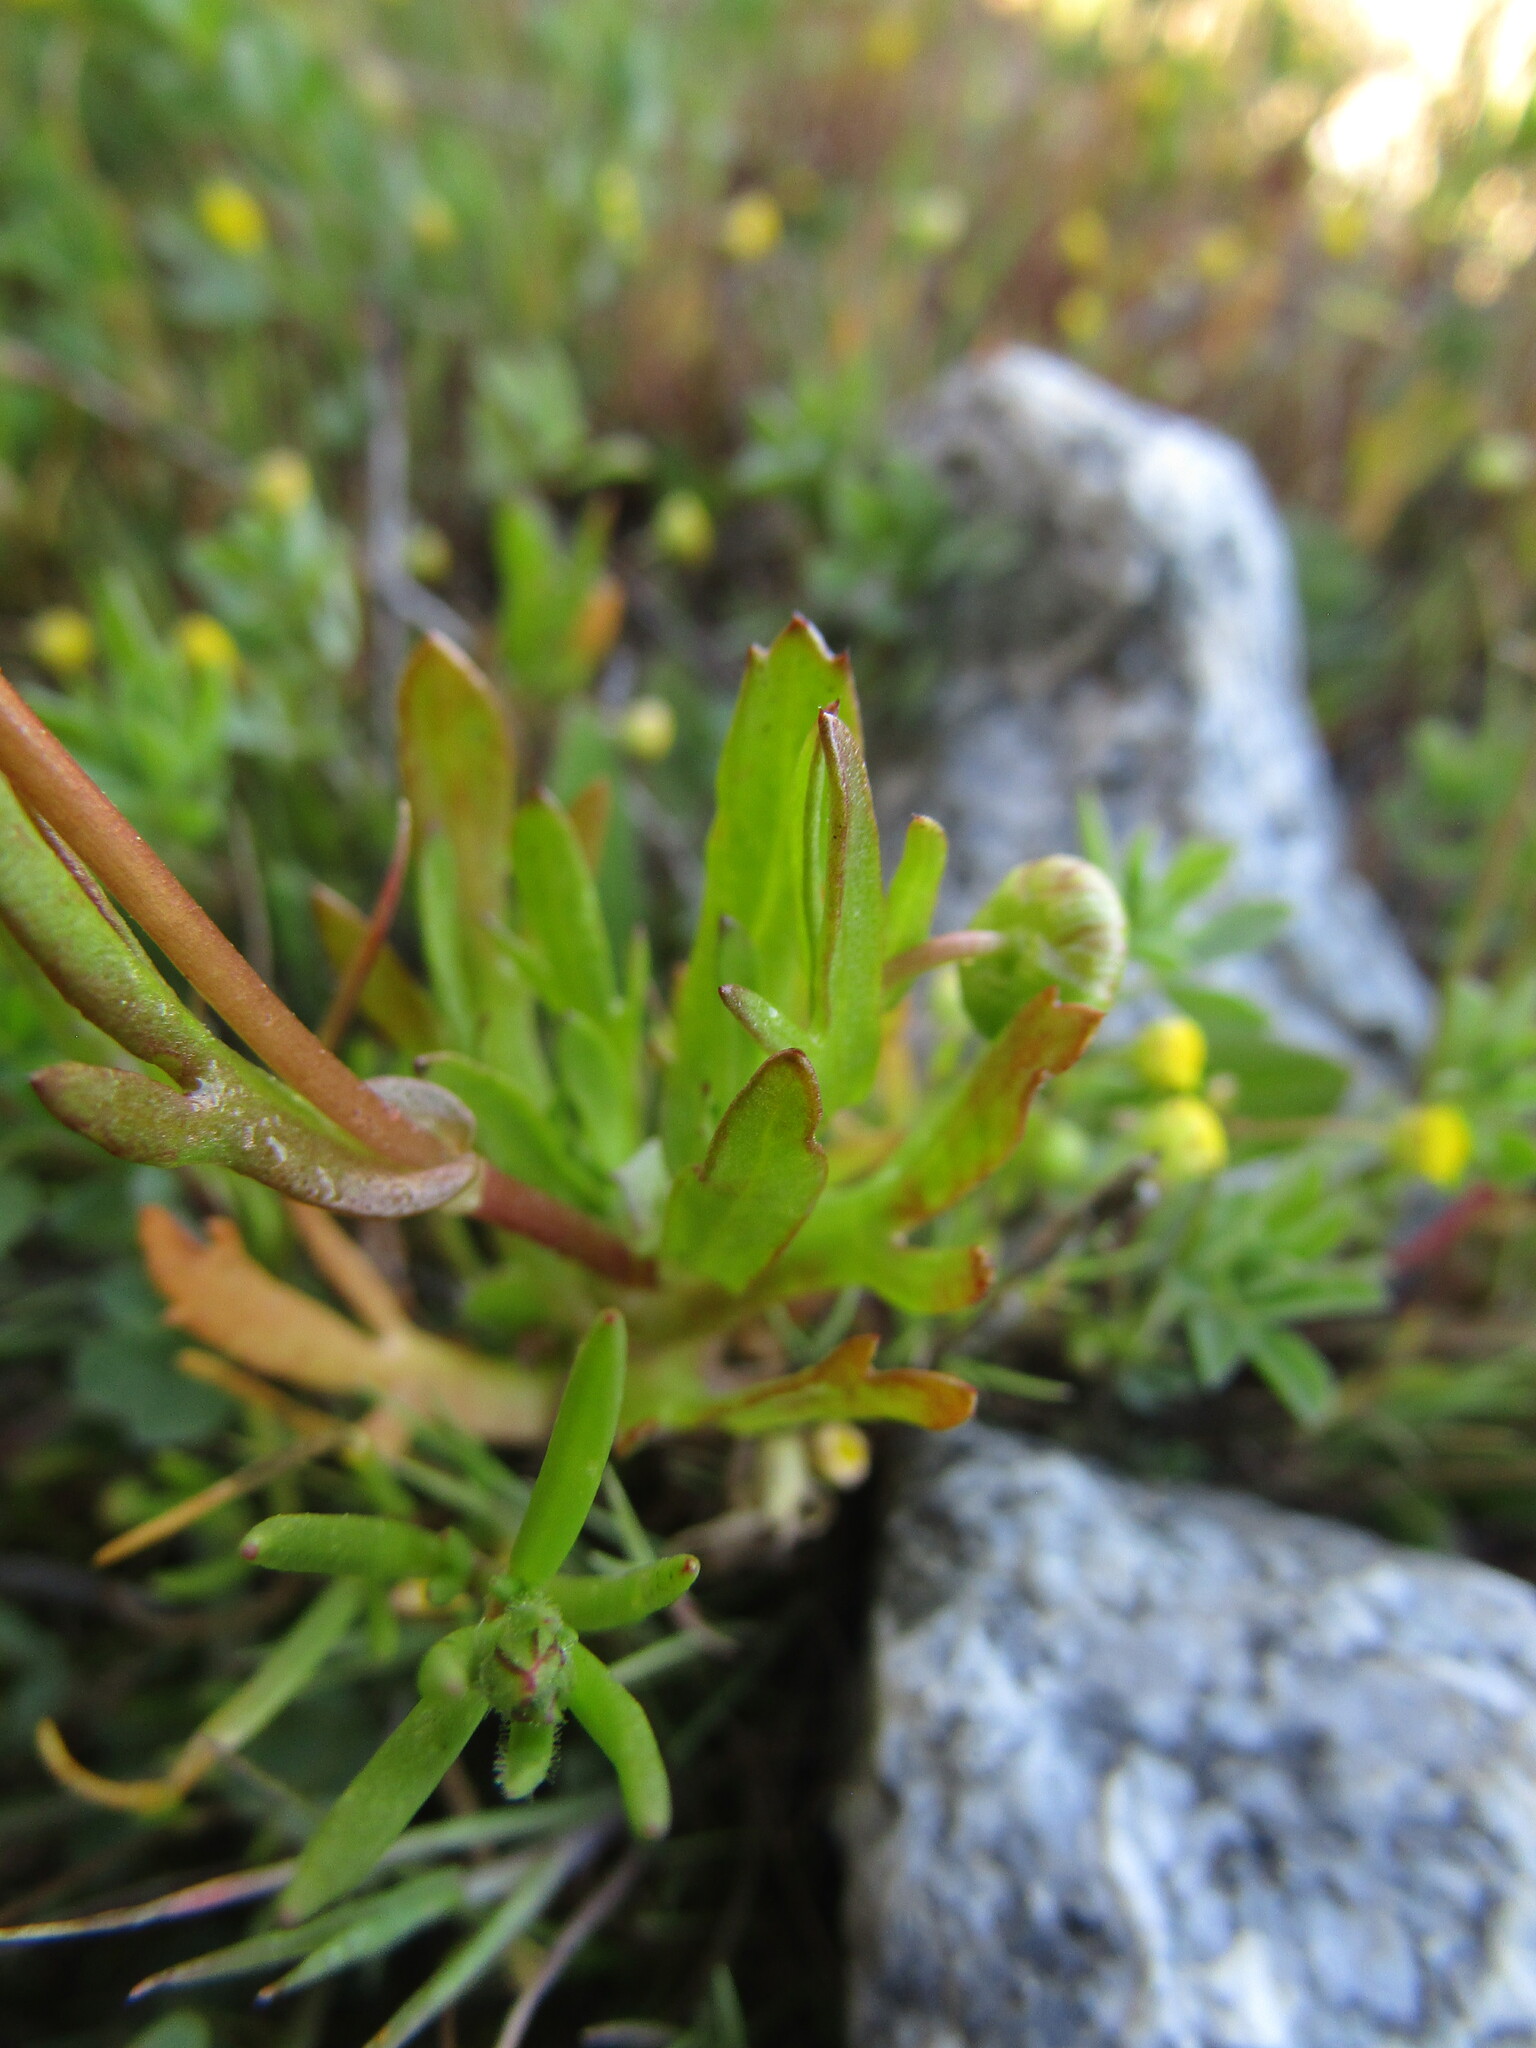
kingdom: Plantae
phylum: Tracheophyta
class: Magnoliopsida
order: Asterales
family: Asteraceae
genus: Cotula
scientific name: Cotula coronopifolia
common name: Buttonweed
